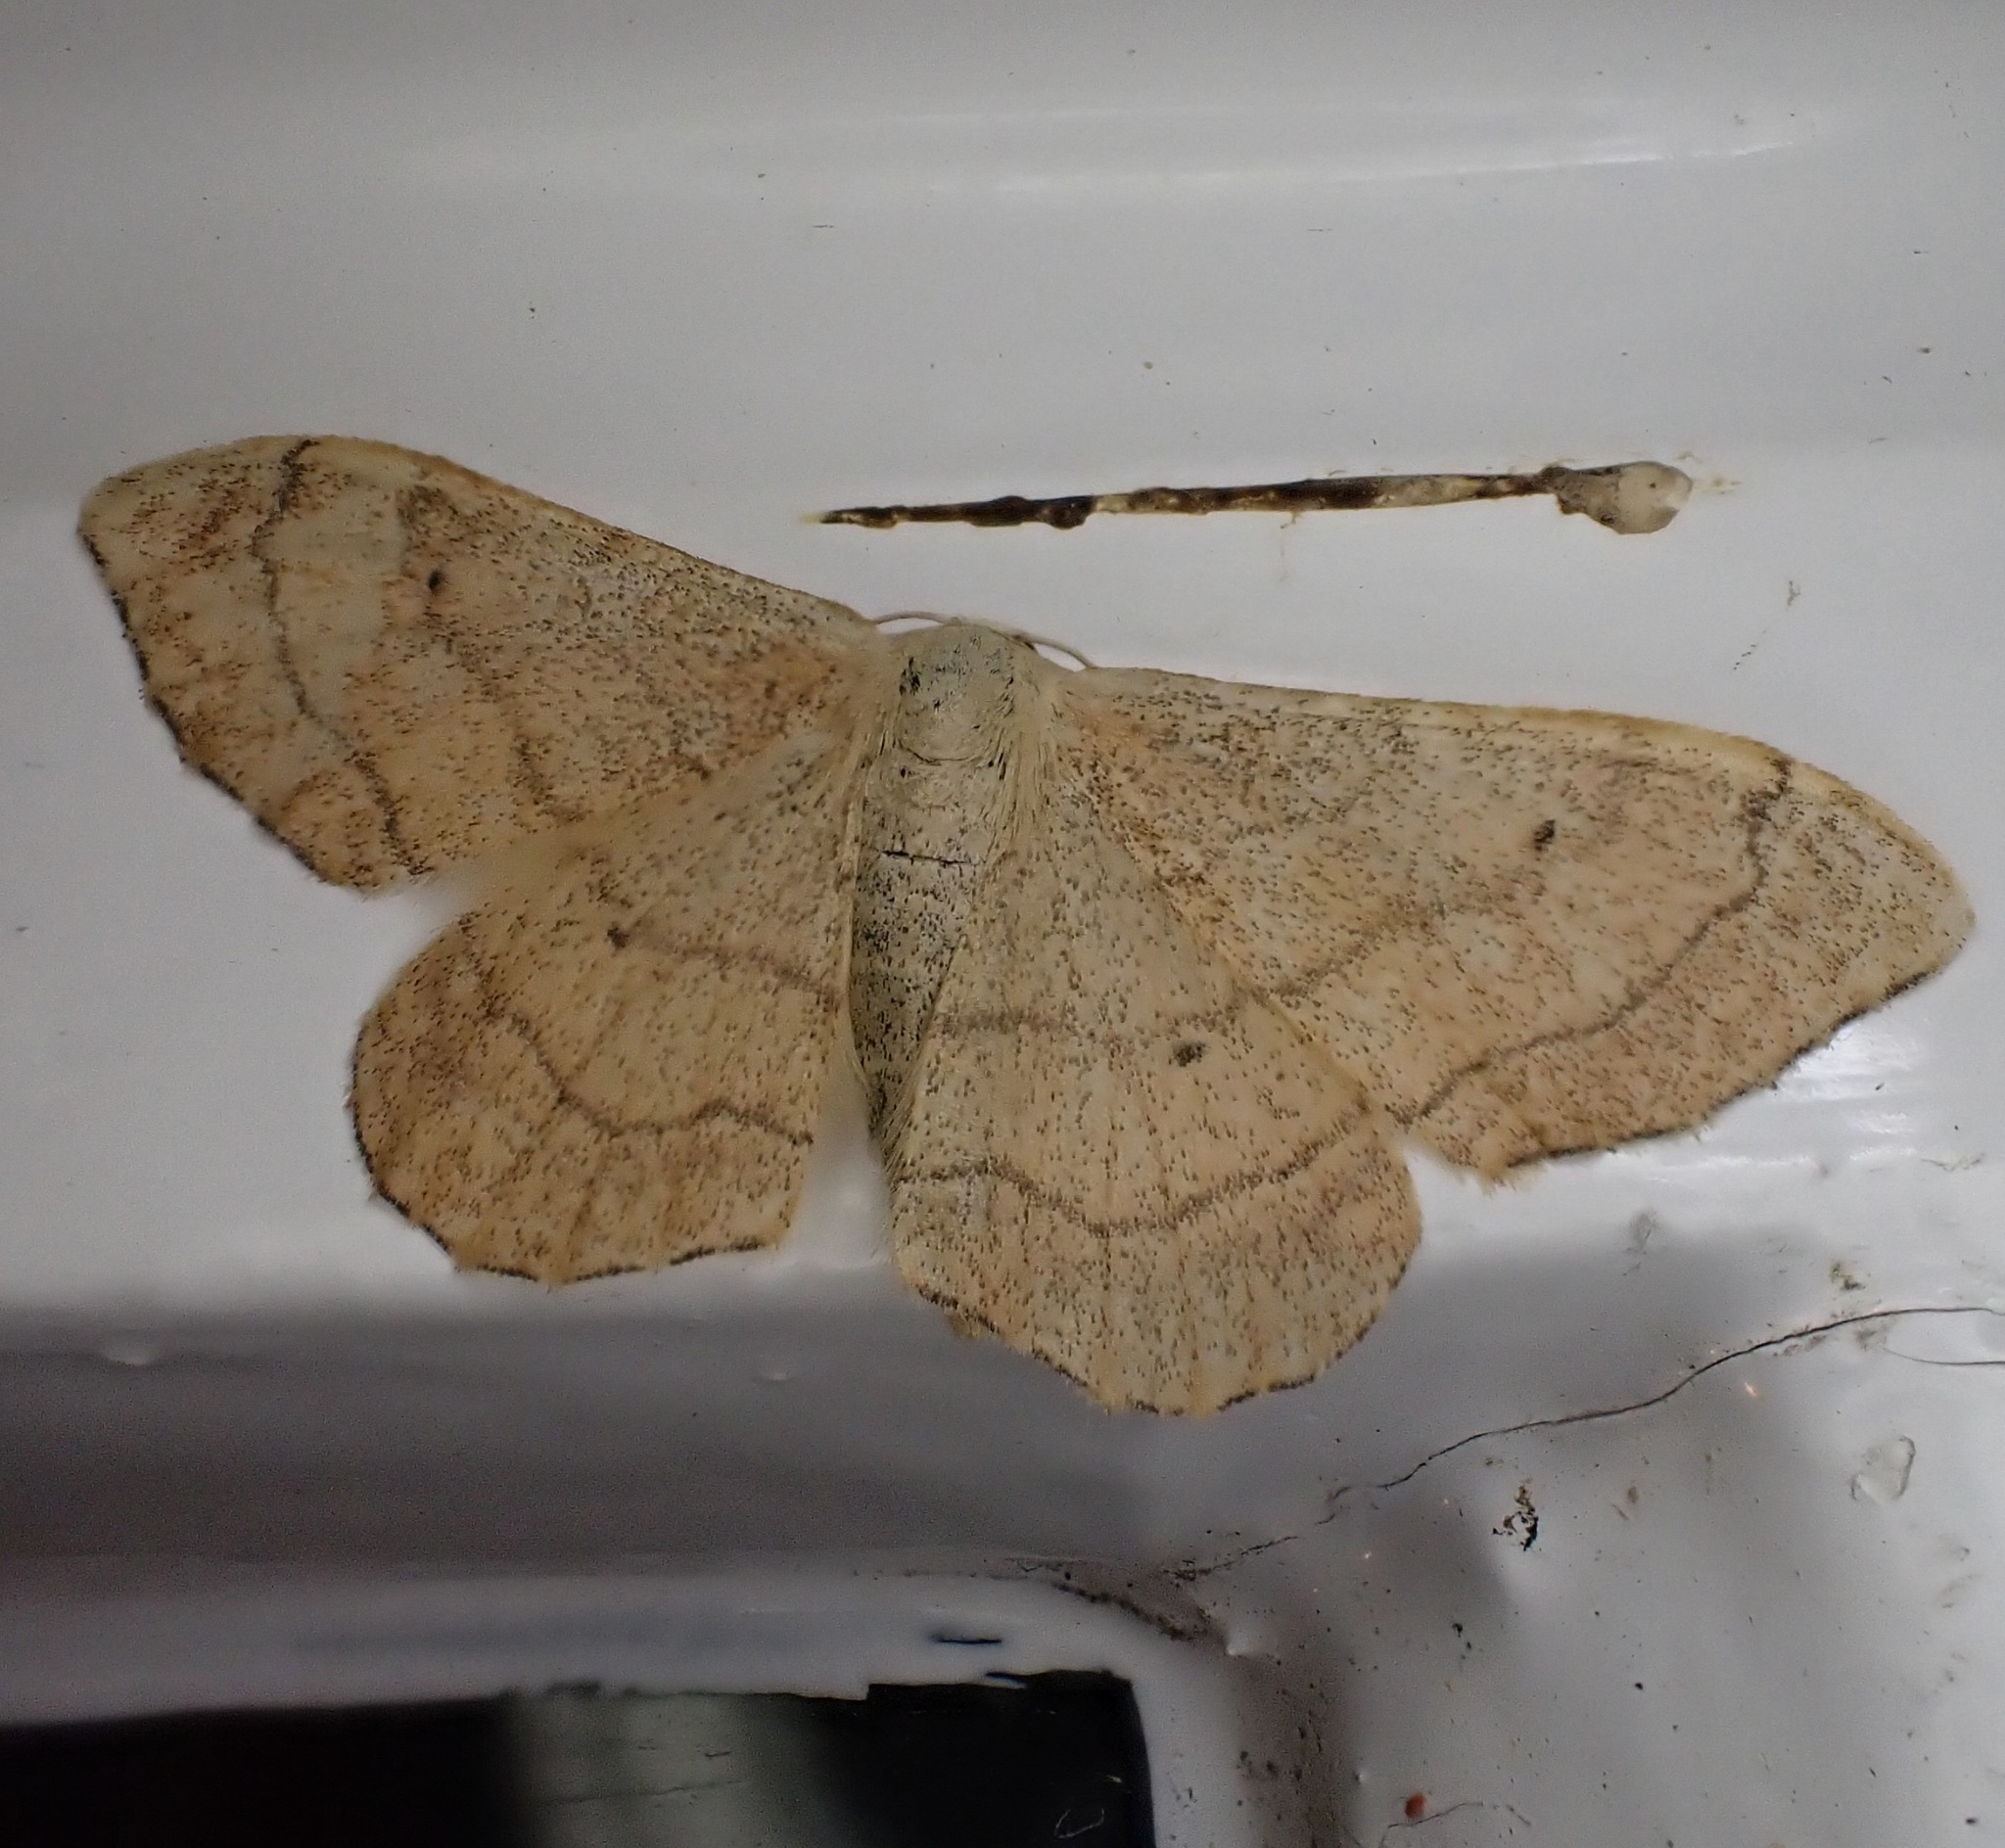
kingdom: Animalia
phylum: Arthropoda
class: Insecta
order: Lepidoptera
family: Geometridae
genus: Idaea
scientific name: Idaea aversata
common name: Riband wave
